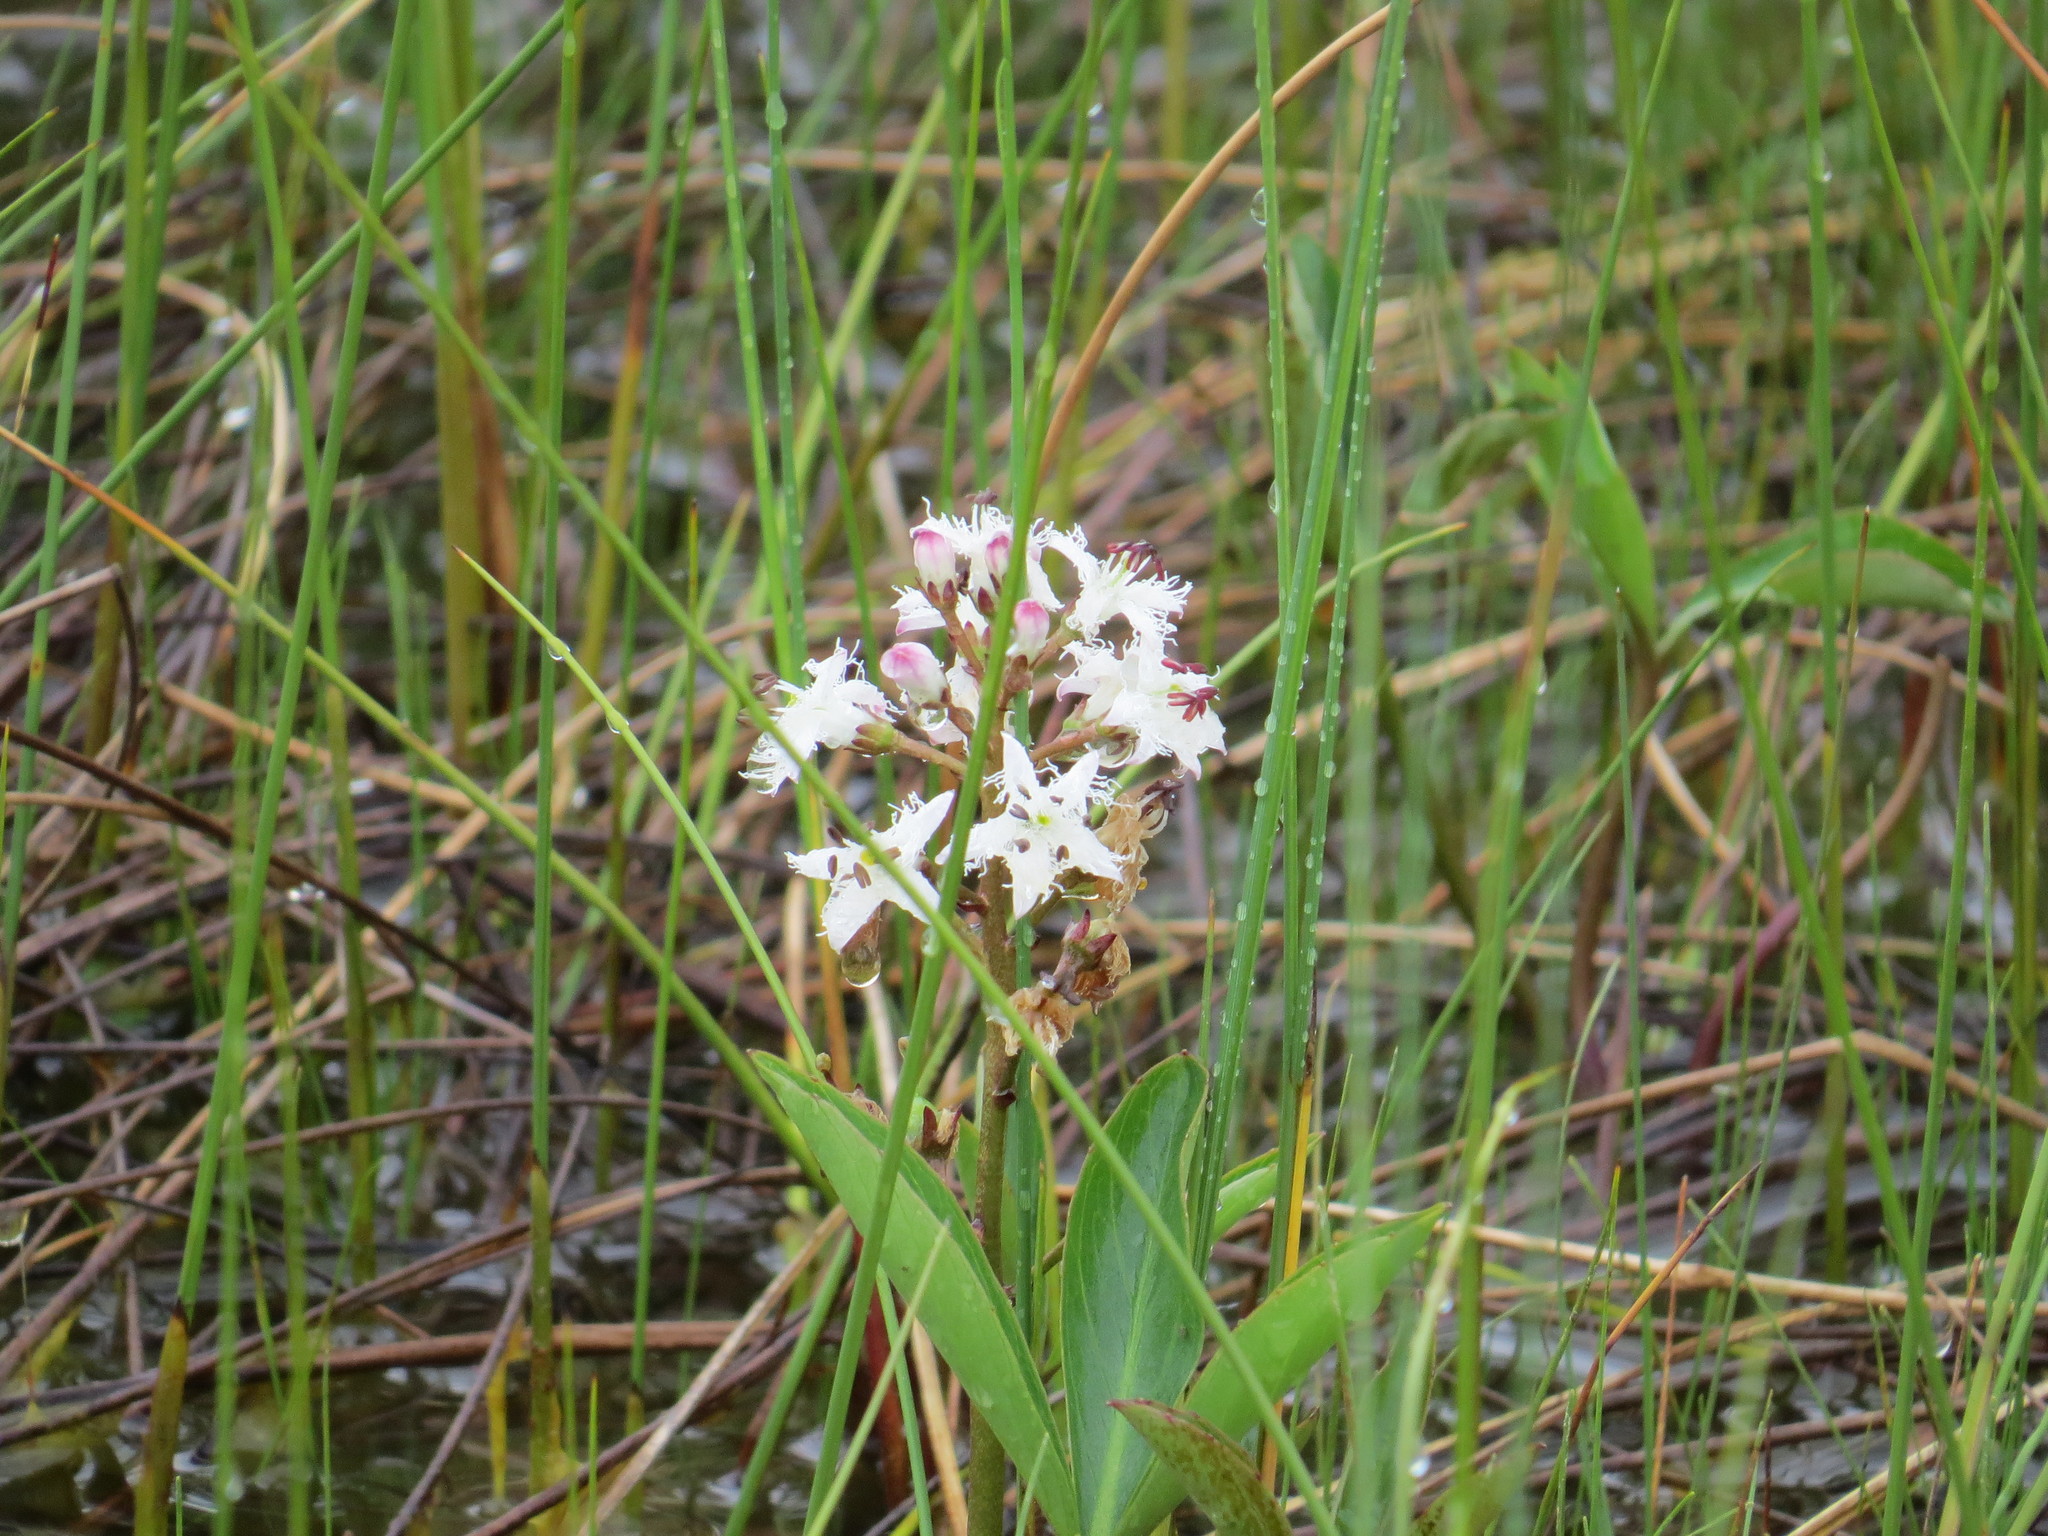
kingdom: Plantae
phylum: Tracheophyta
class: Magnoliopsida
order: Asterales
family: Menyanthaceae
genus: Menyanthes
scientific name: Menyanthes trifoliata
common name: Bogbean
